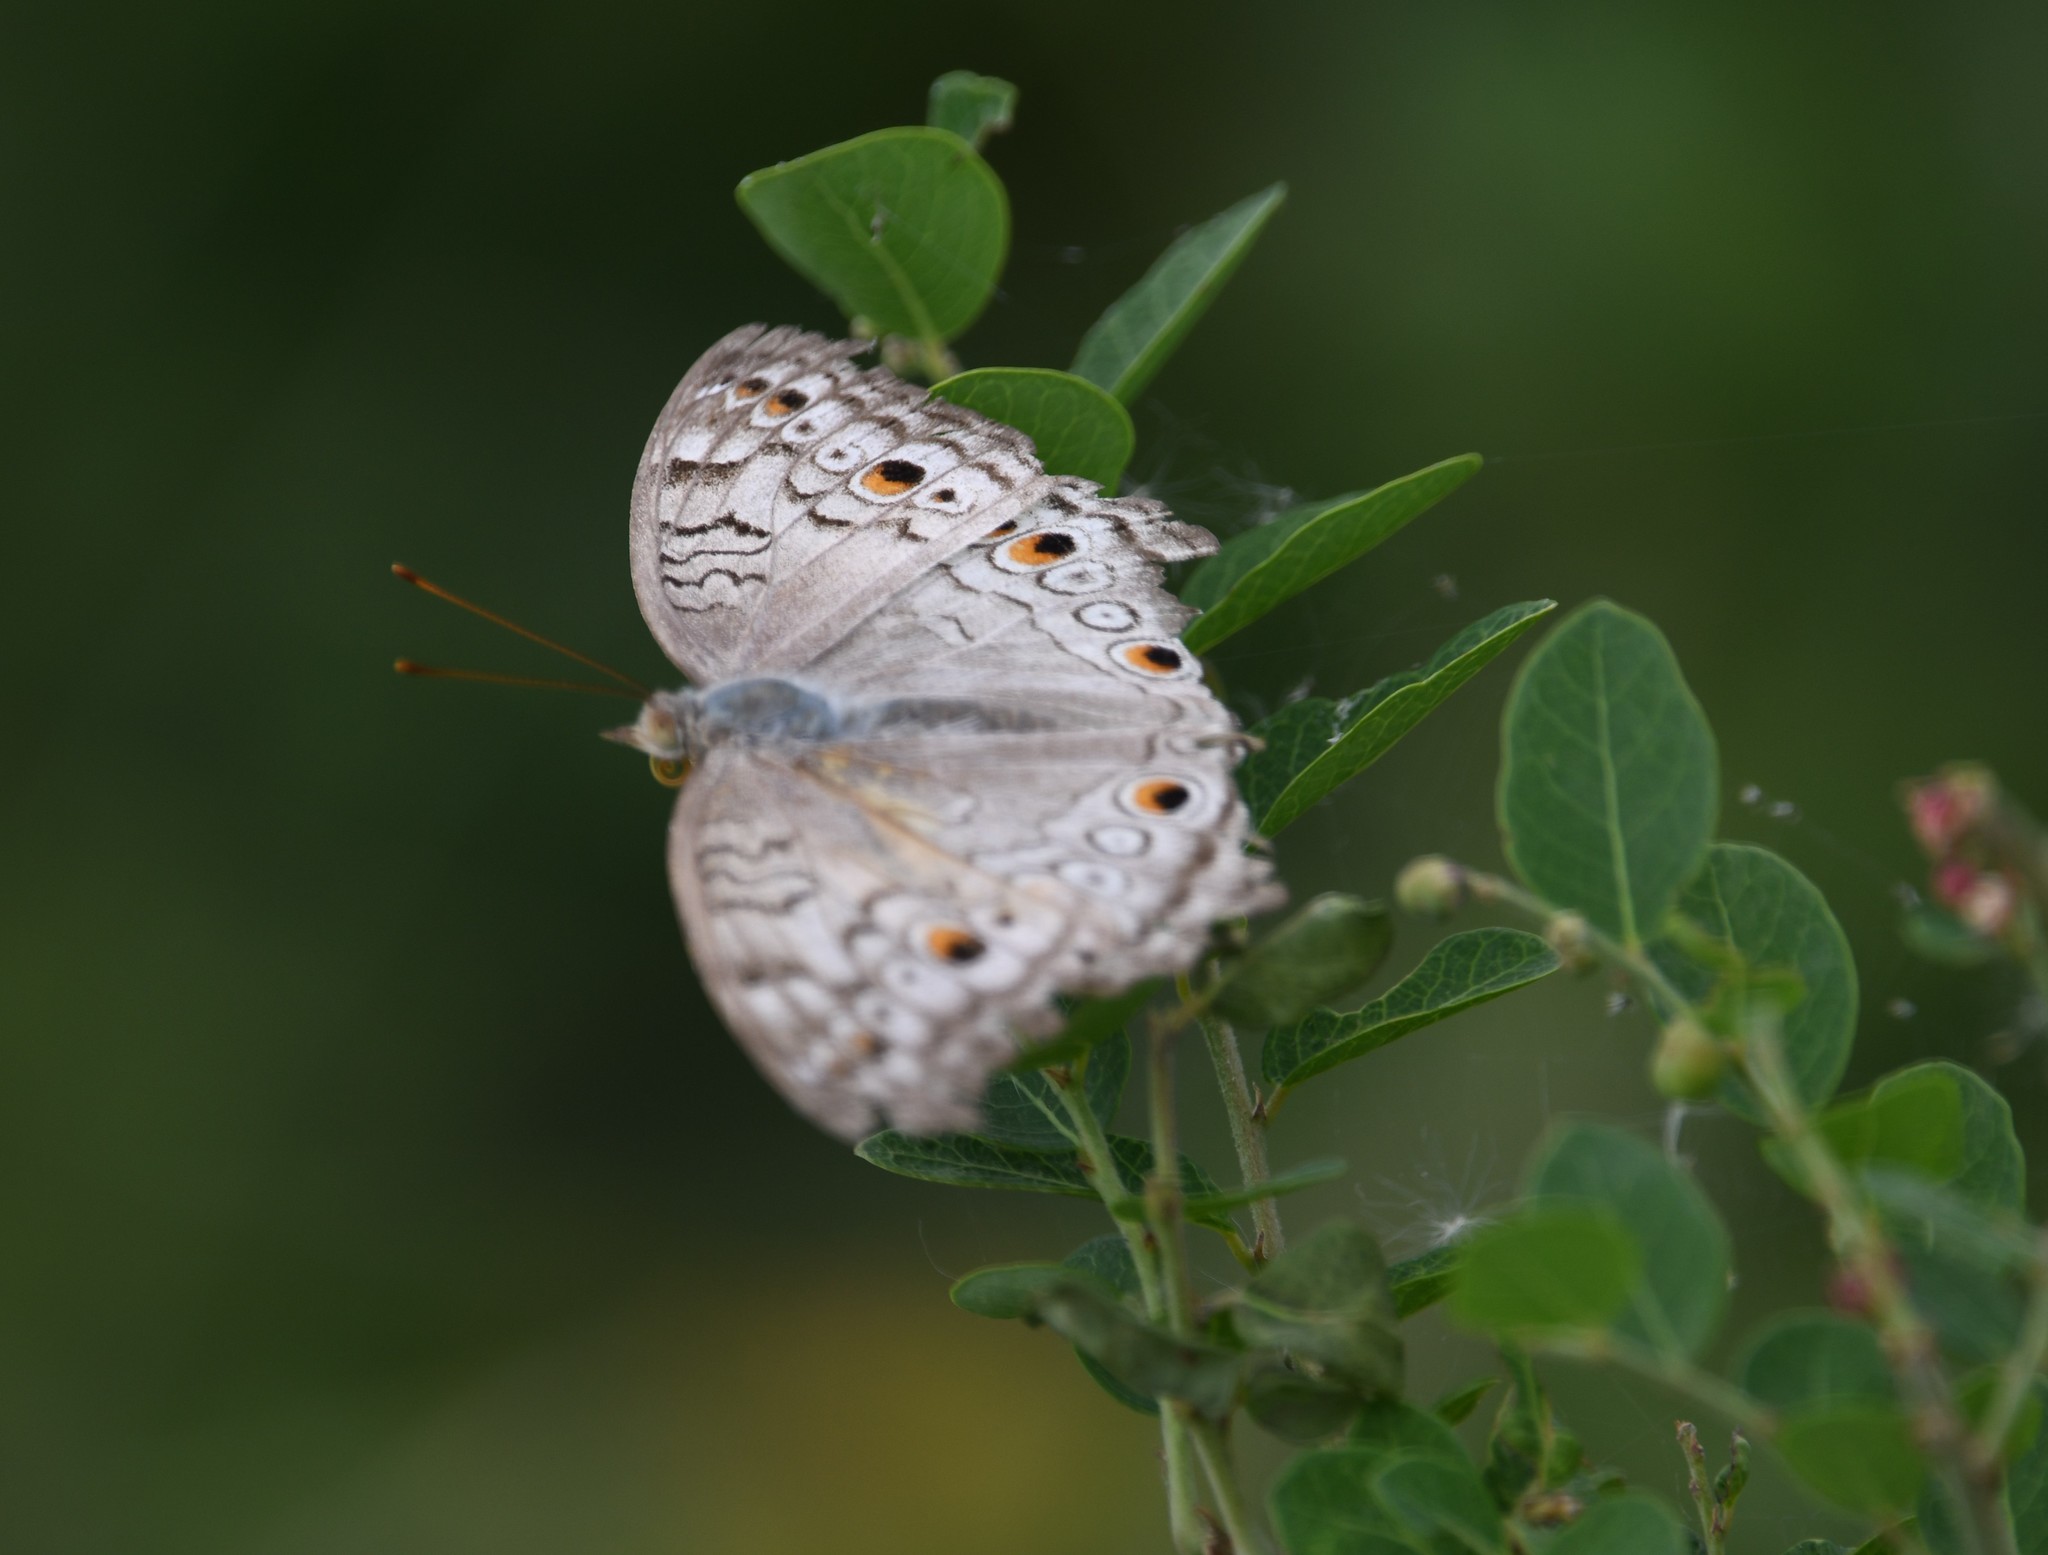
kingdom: Animalia
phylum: Arthropoda
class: Insecta
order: Lepidoptera
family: Nymphalidae
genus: Junonia
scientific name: Junonia atlites
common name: Grey pansy
